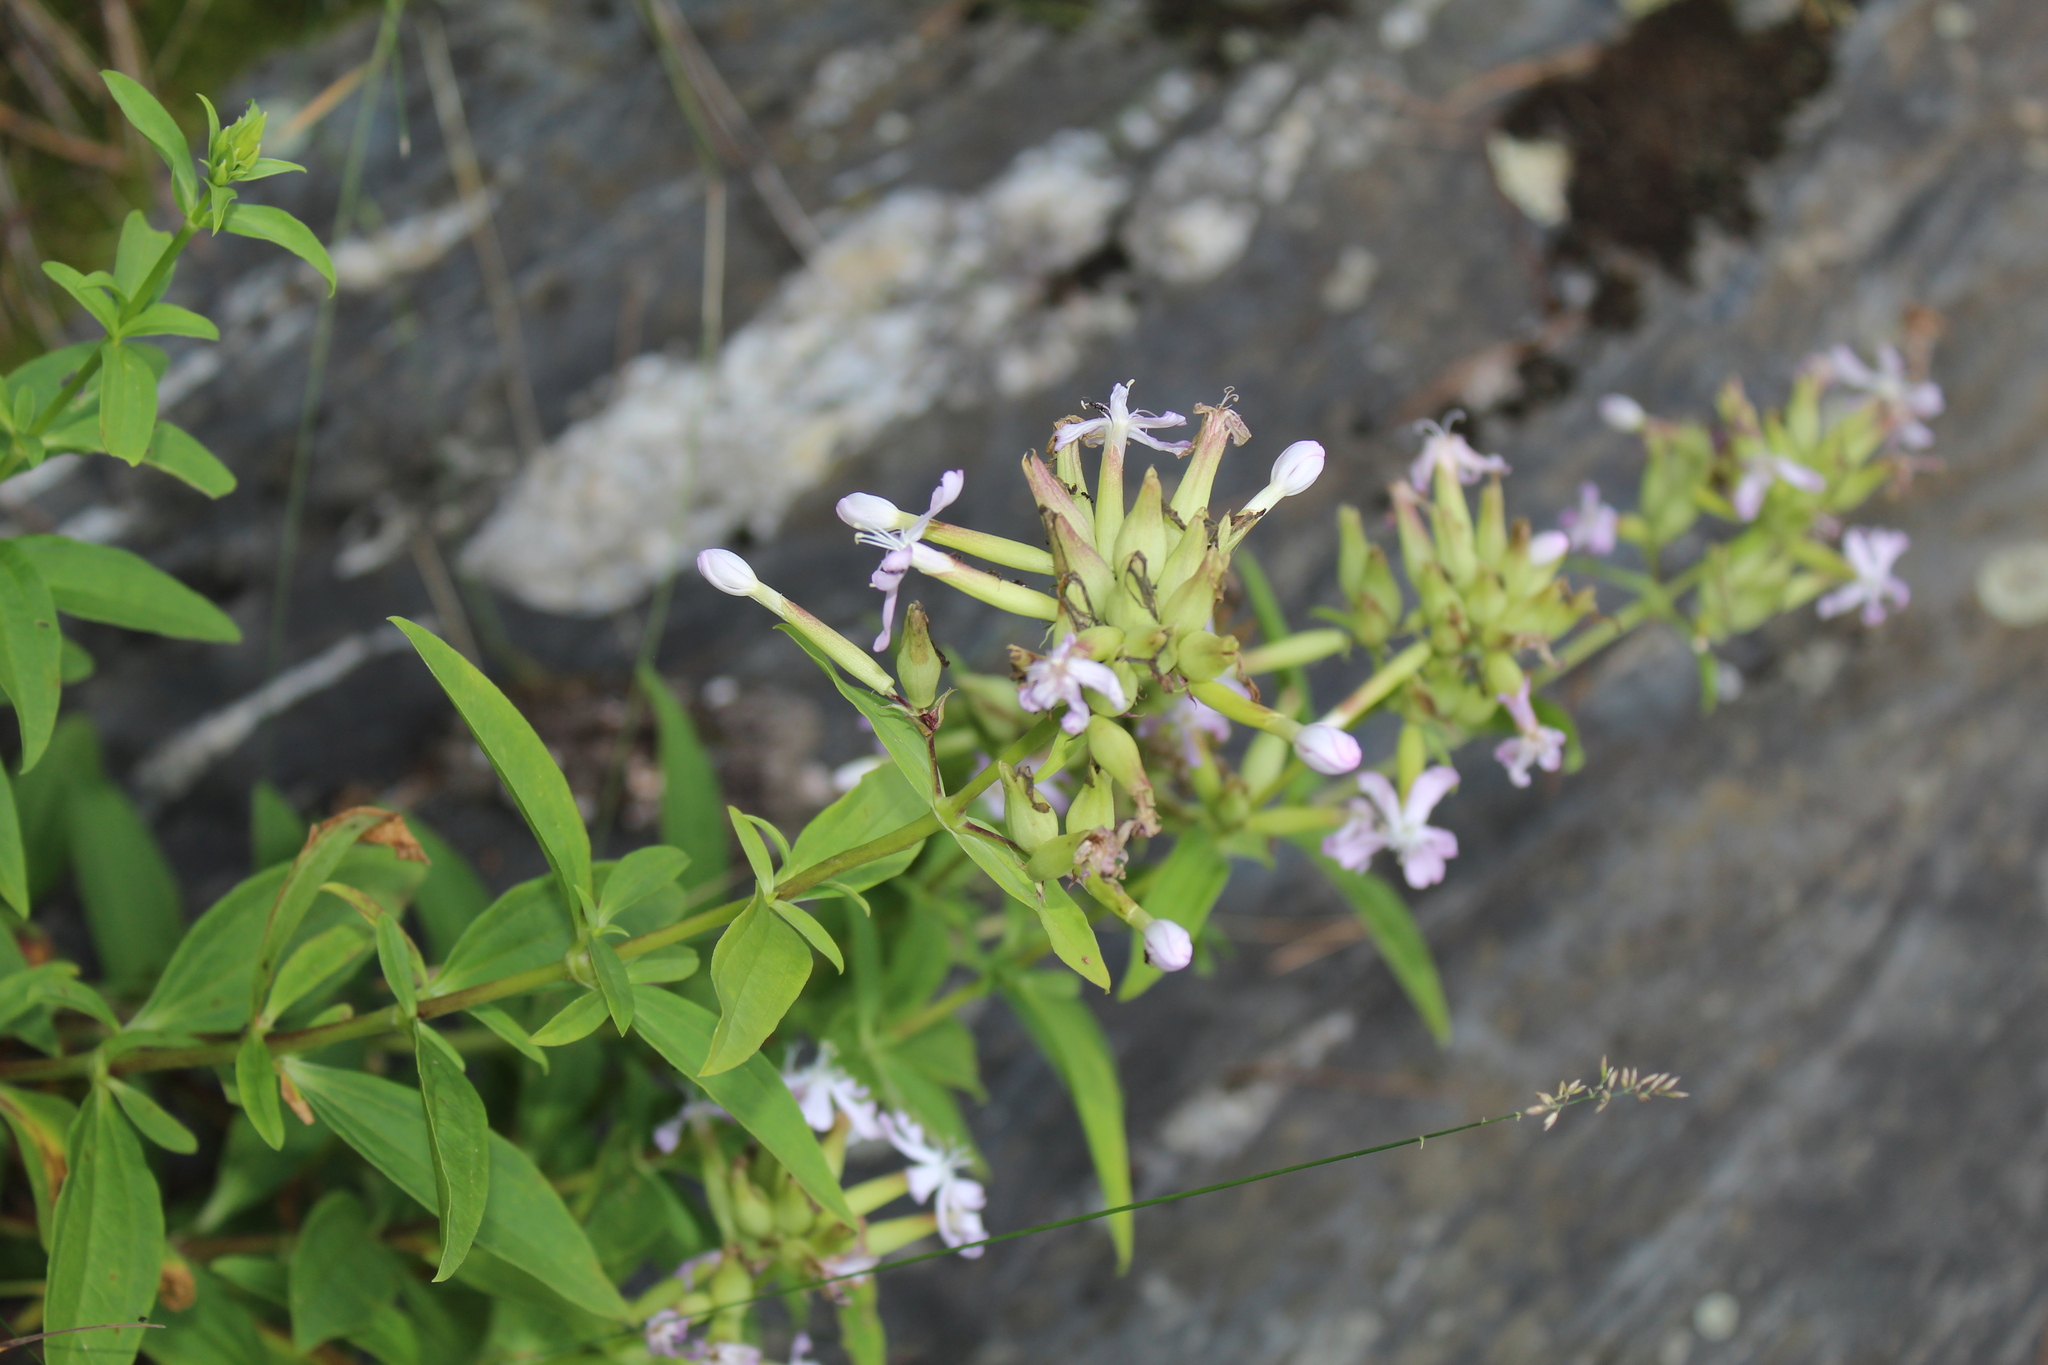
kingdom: Plantae
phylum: Tracheophyta
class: Magnoliopsida
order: Caryophyllales
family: Caryophyllaceae
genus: Saponaria
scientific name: Saponaria officinalis
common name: Soapwort
